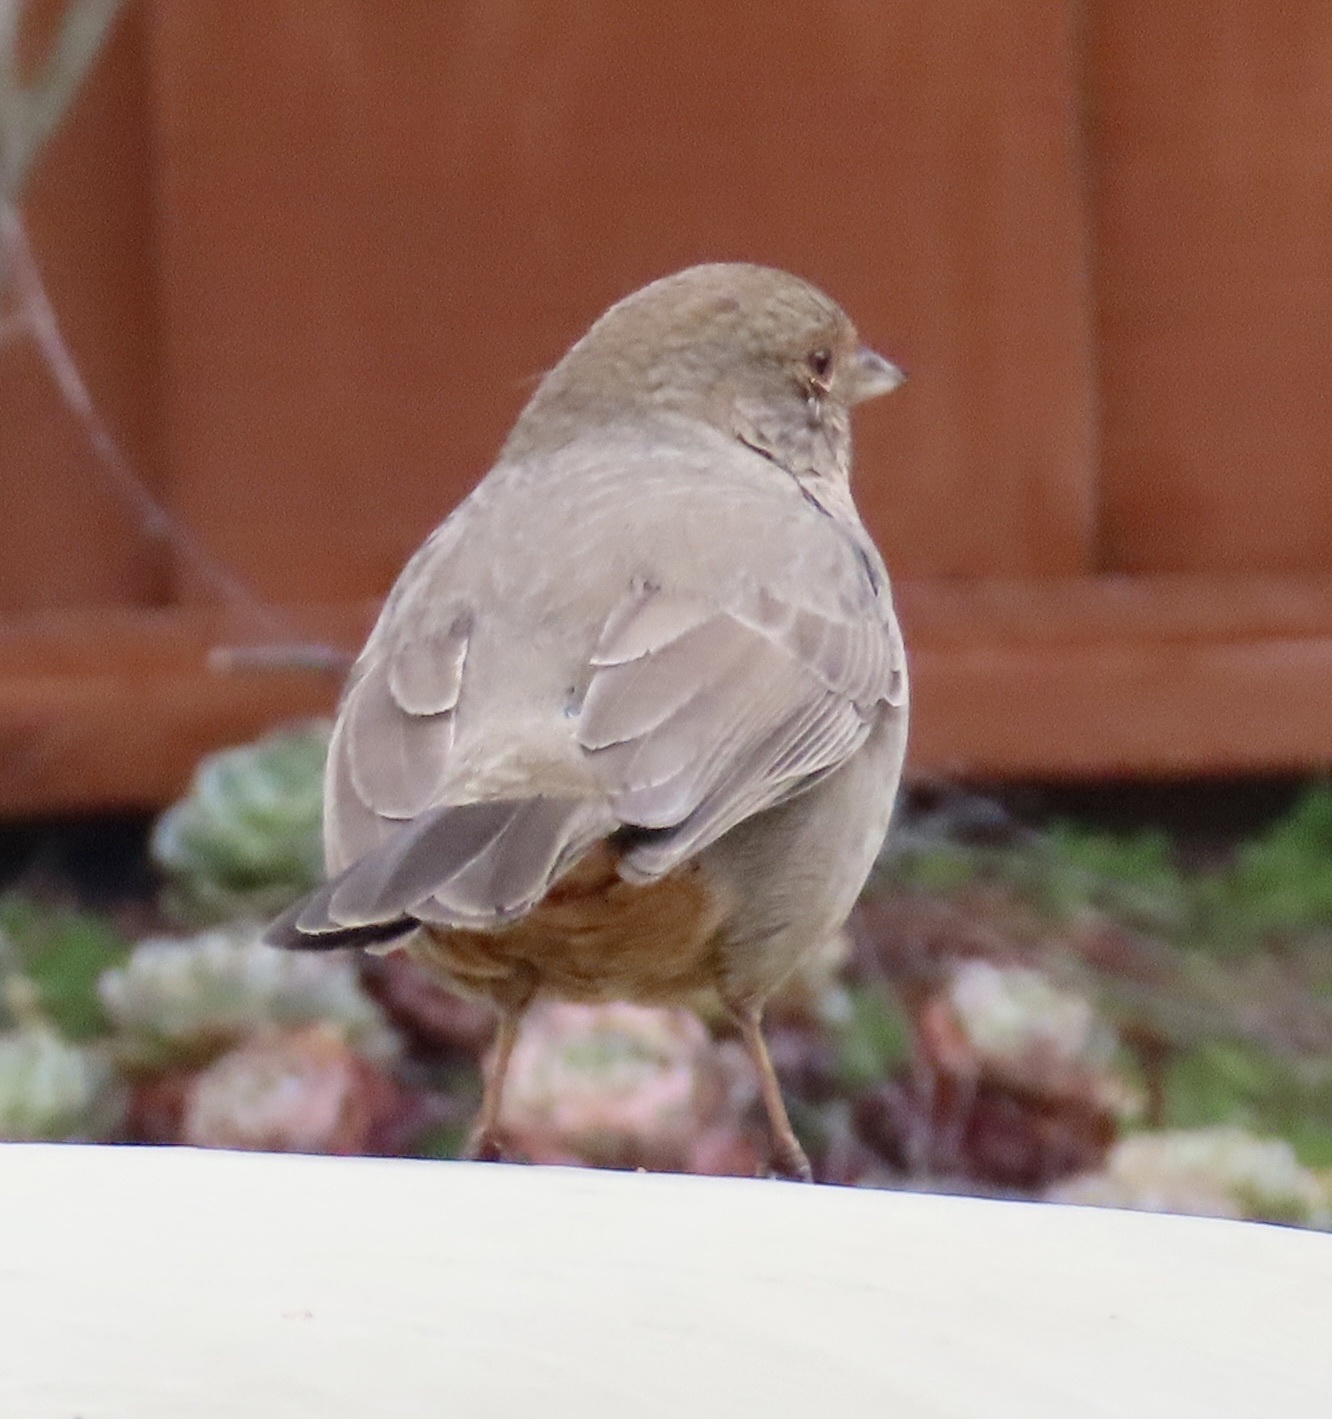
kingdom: Animalia
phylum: Chordata
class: Aves
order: Passeriformes
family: Passerellidae
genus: Melozone
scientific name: Melozone crissalis
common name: California towhee
